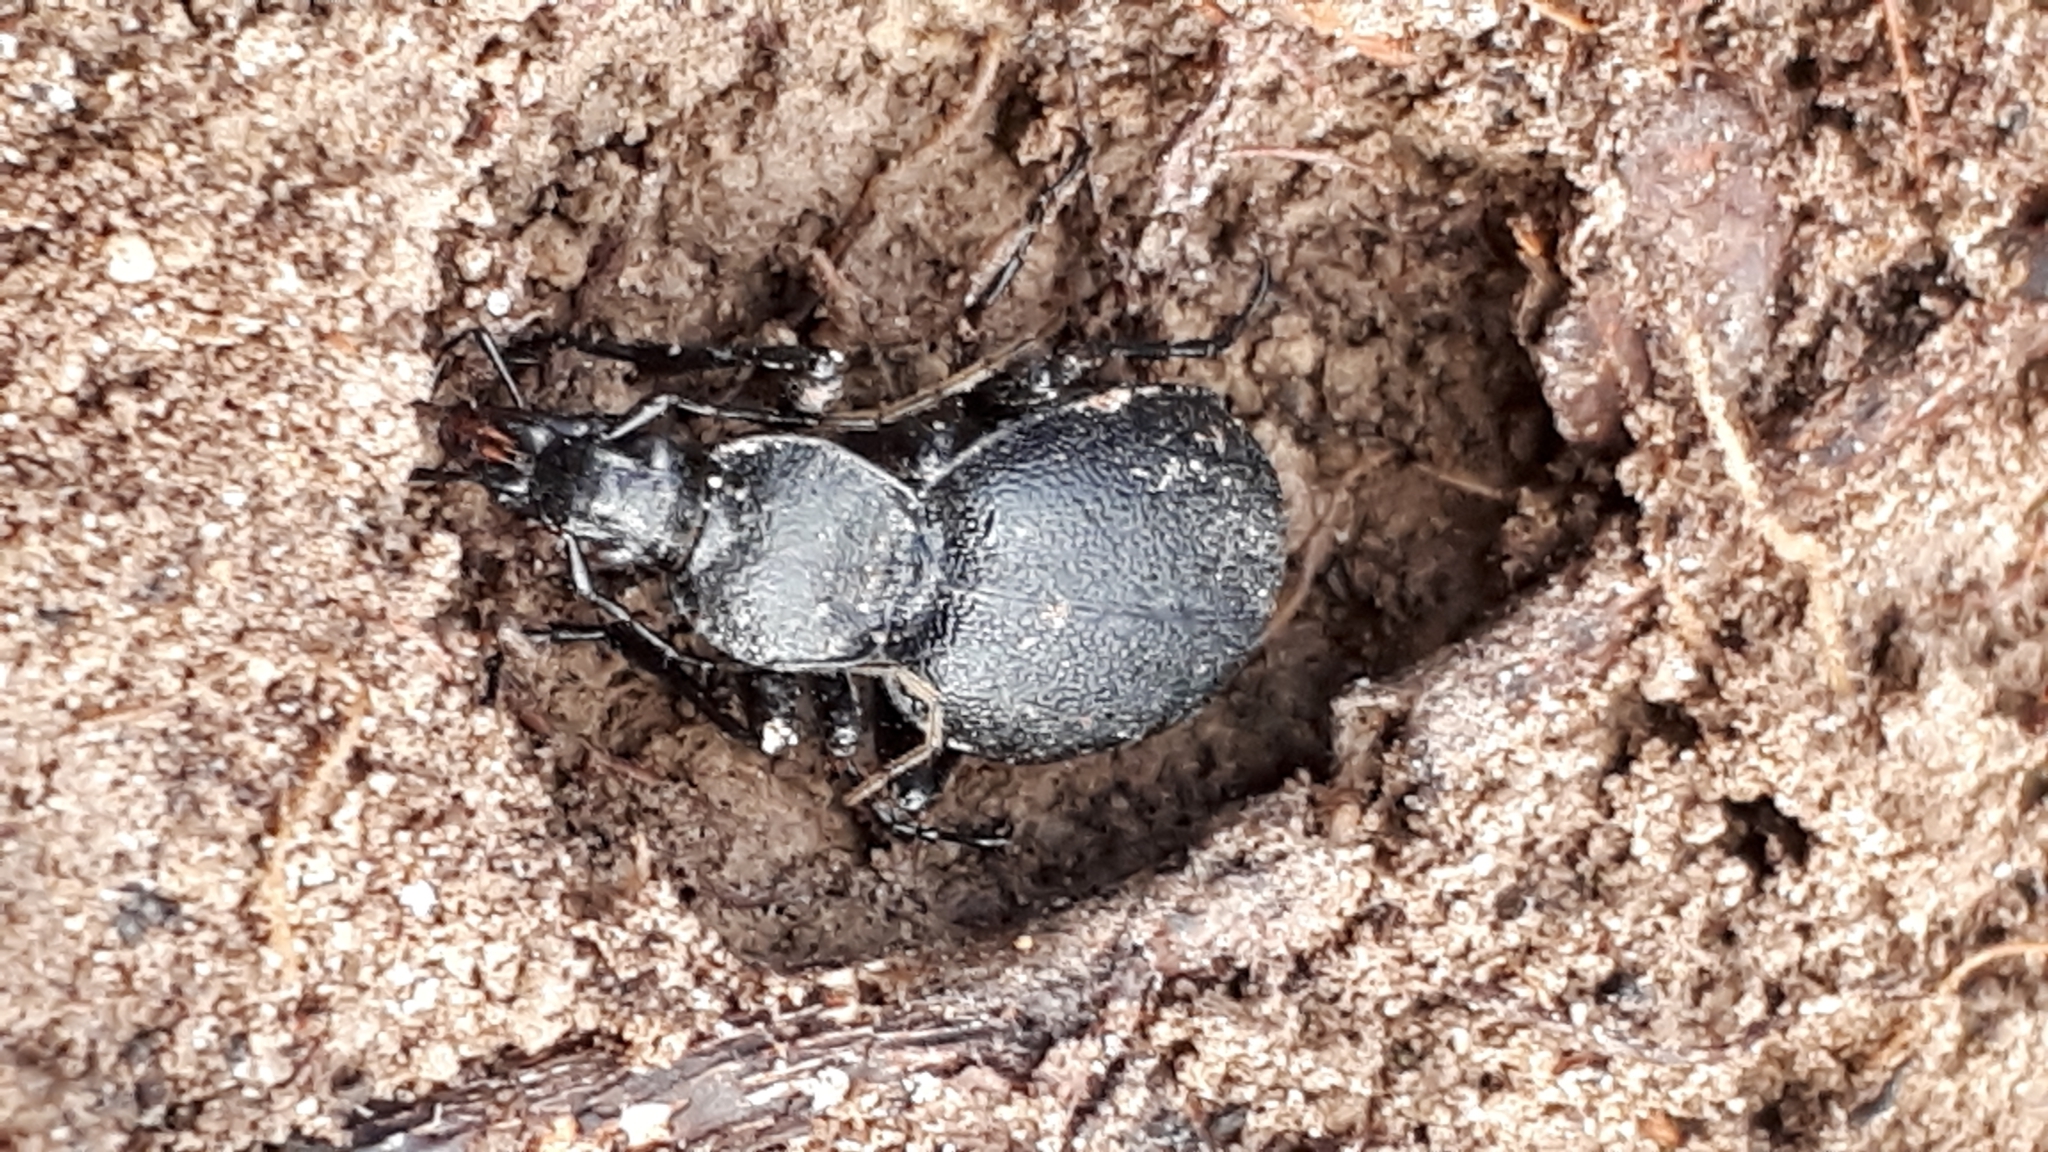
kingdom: Animalia
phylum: Arthropoda
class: Insecta
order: Coleoptera
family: Carabidae
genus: Cychrus
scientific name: Cychrus caraboides
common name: Snail hunter
